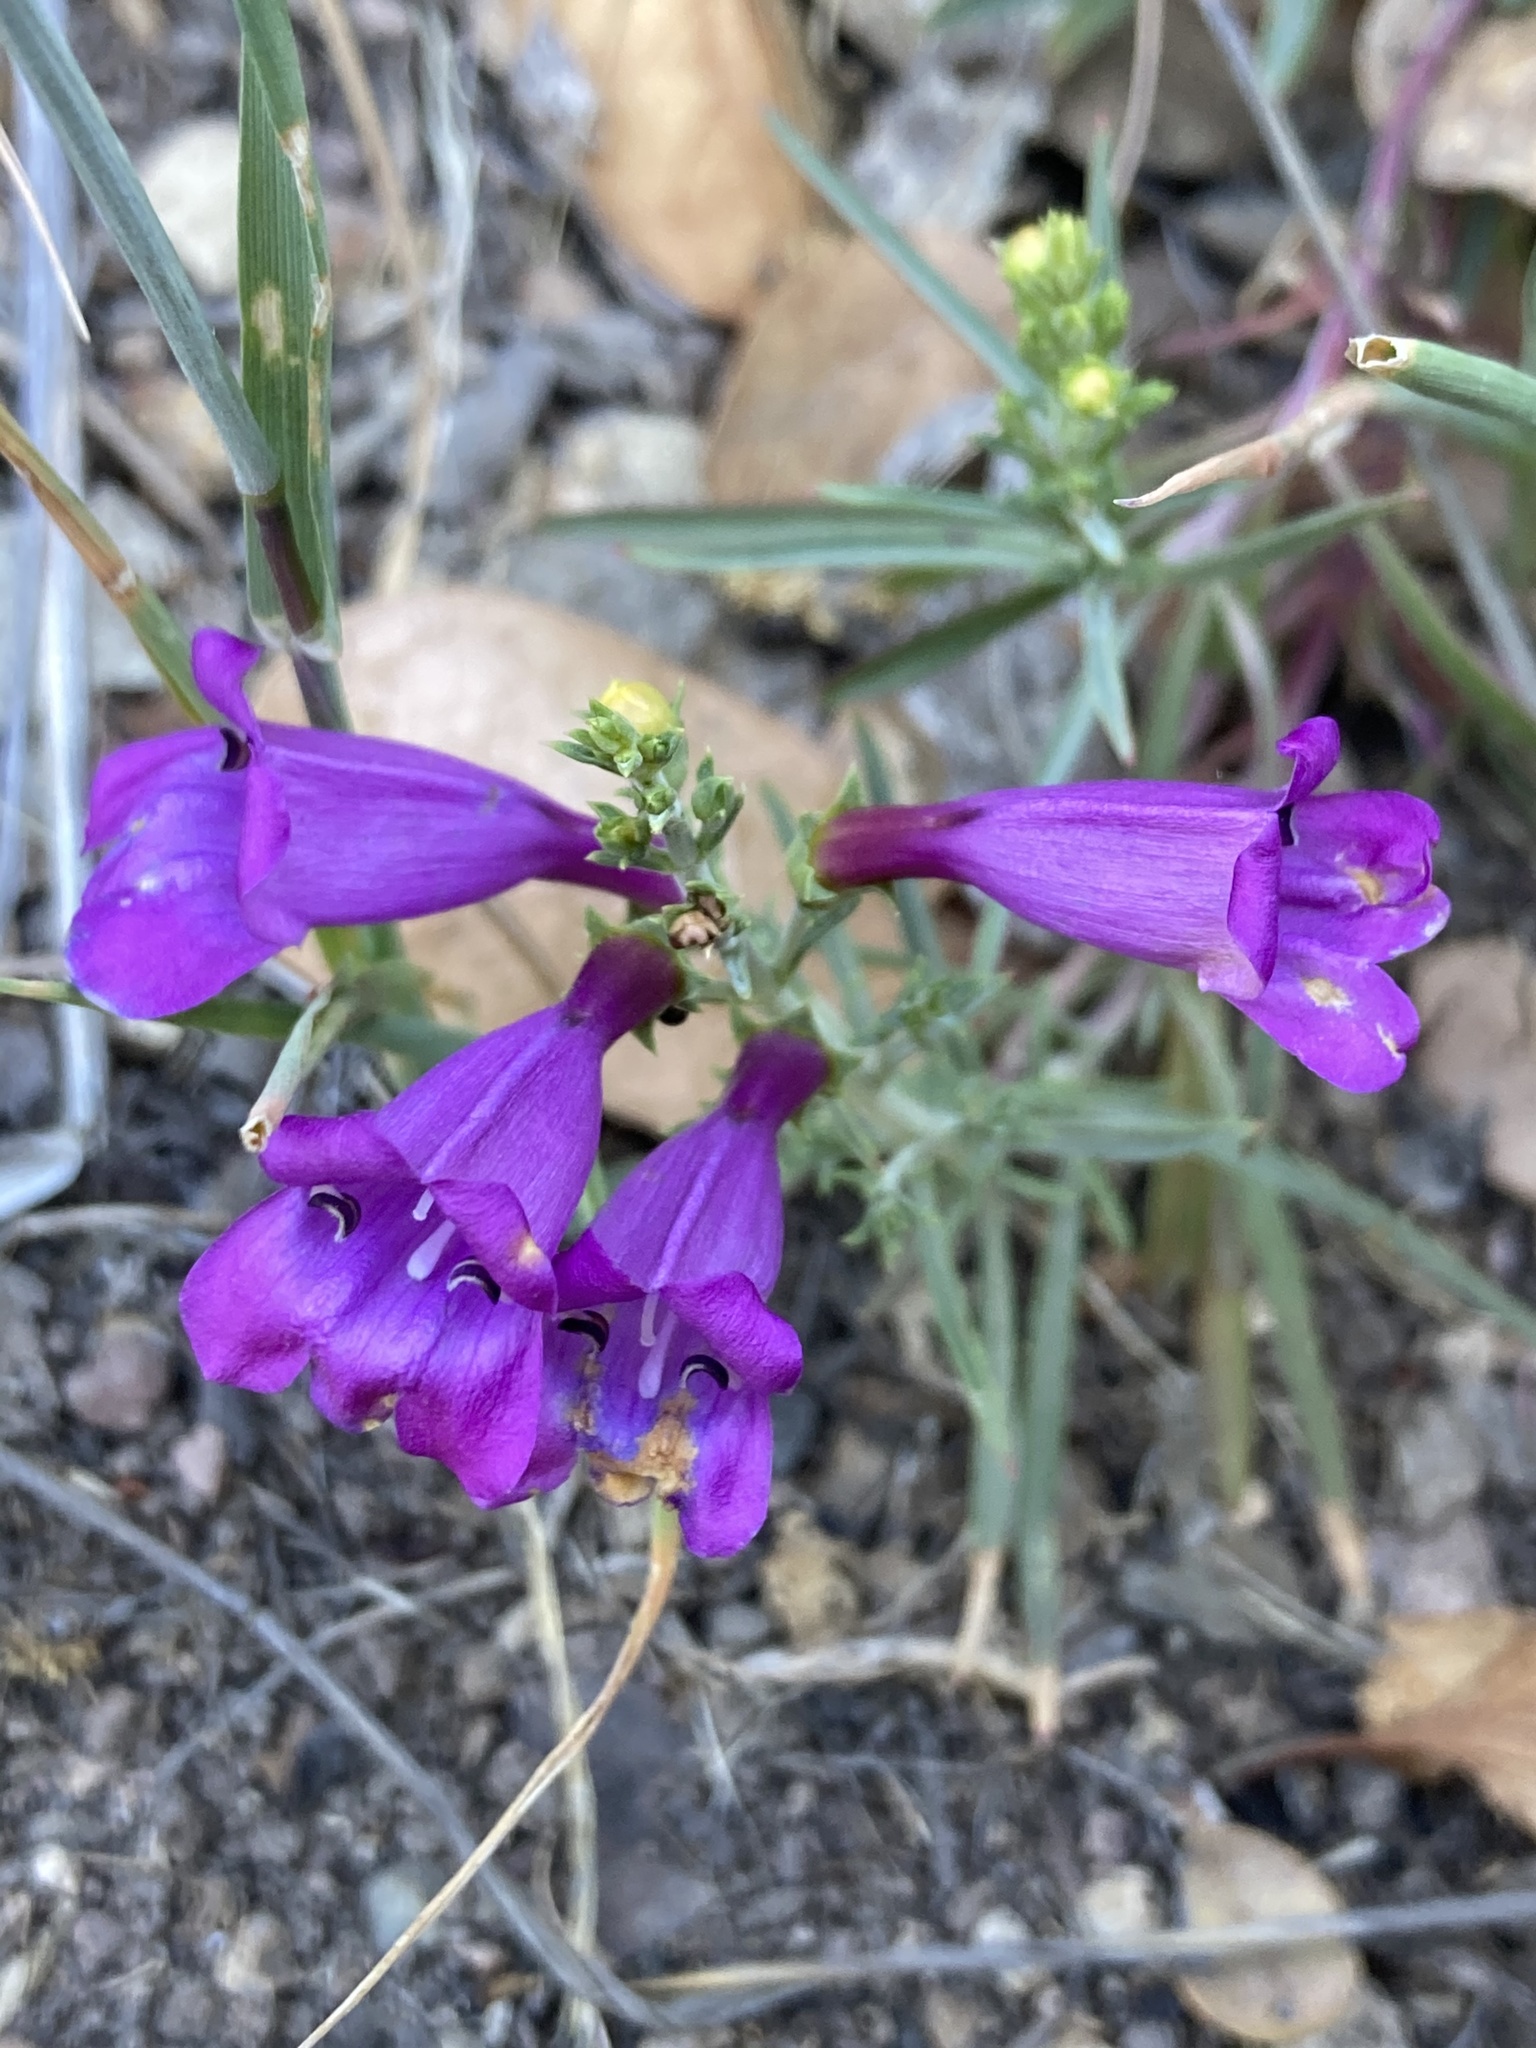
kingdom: Plantae
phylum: Tracheophyta
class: Magnoliopsida
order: Lamiales
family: Plantaginaceae
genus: Penstemon
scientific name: Penstemon heterophyllus
